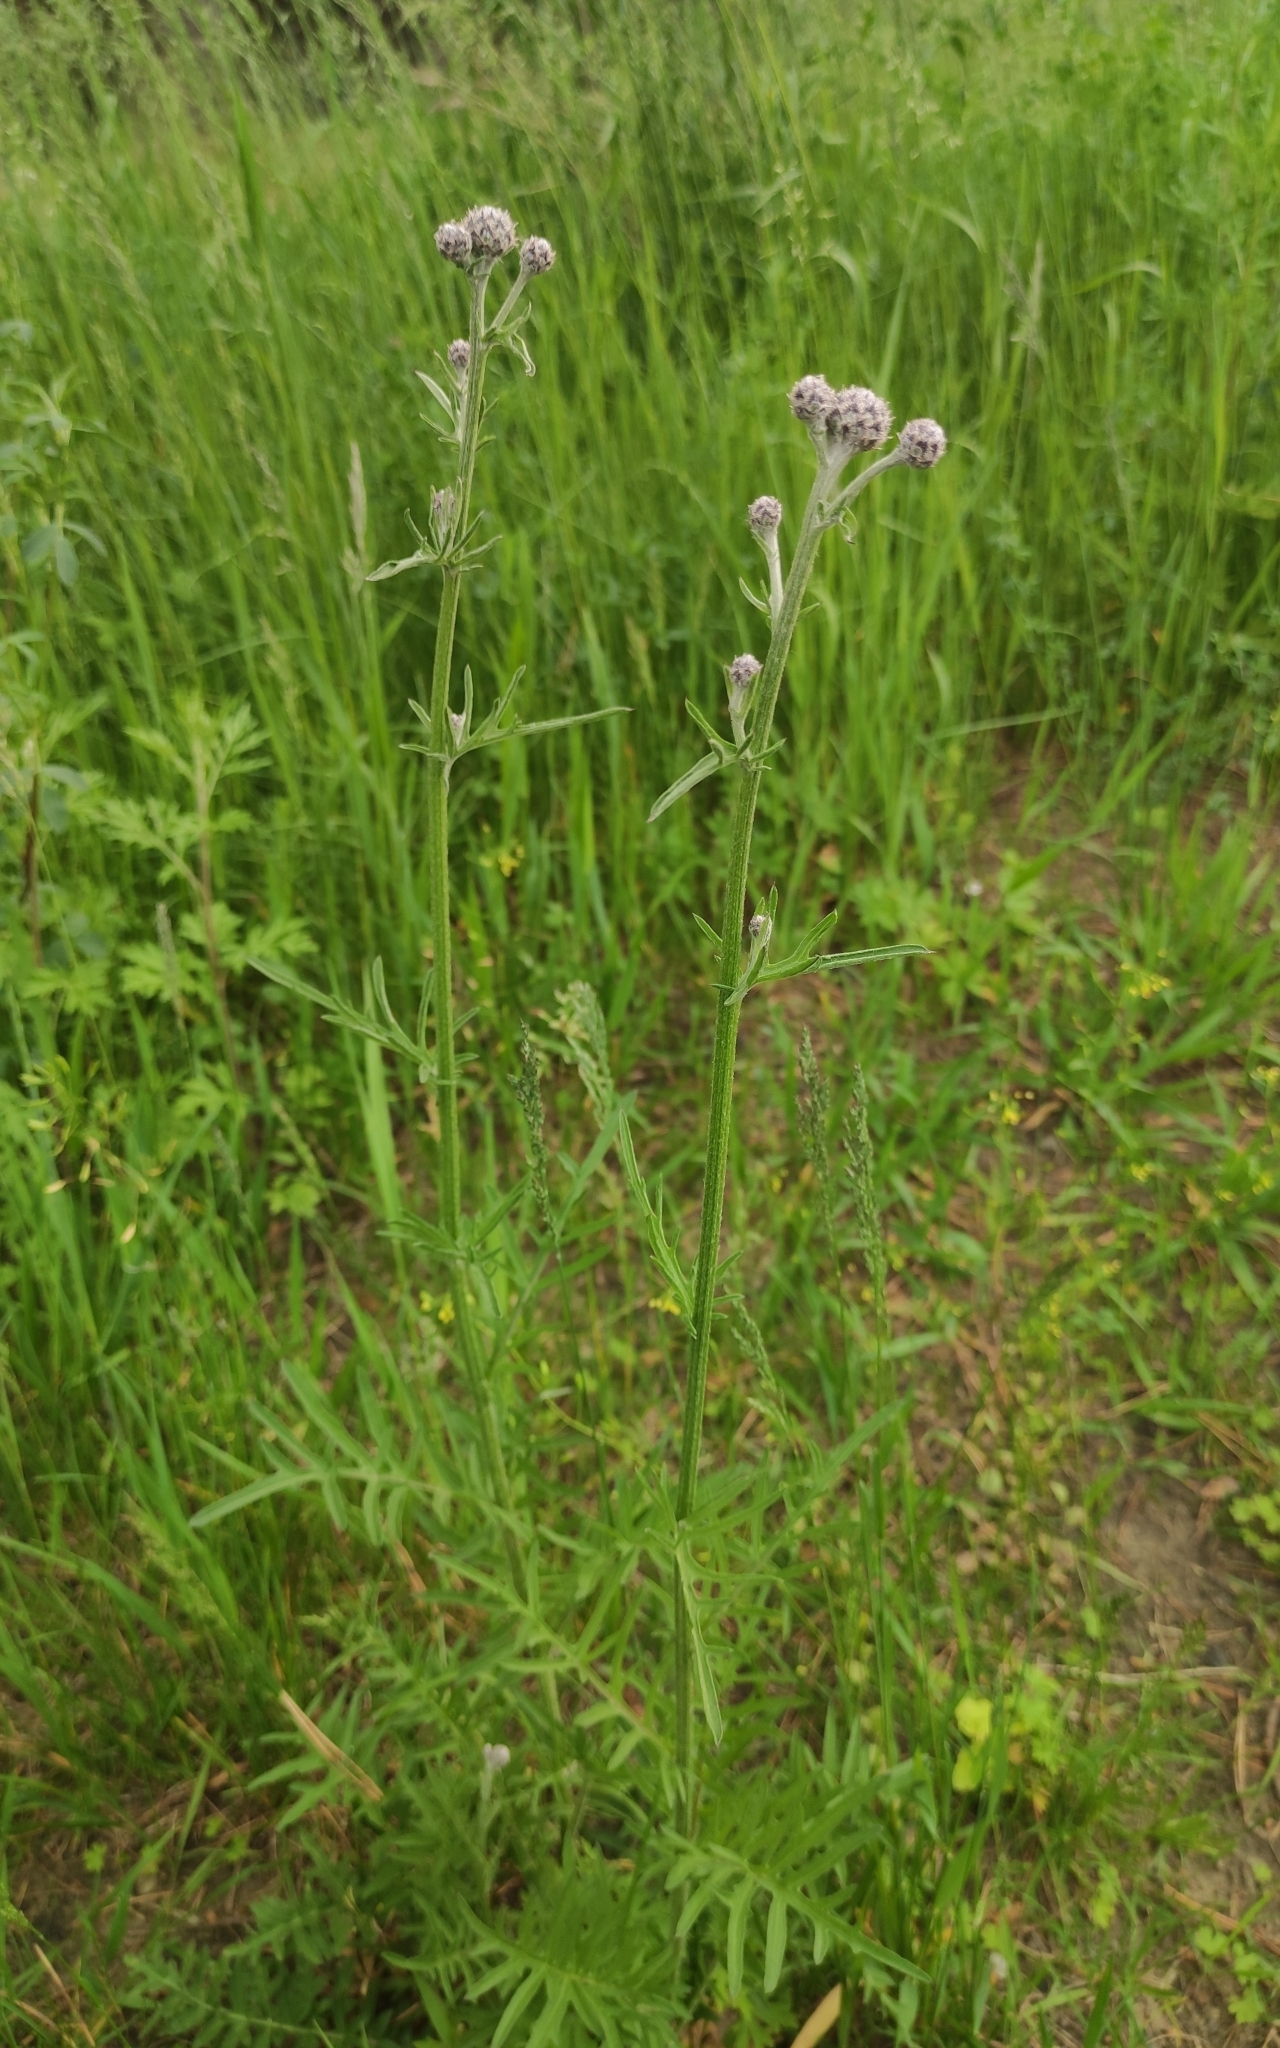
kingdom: Plantae
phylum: Tracheophyta
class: Magnoliopsida
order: Asterales
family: Asteraceae
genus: Centaurea
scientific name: Centaurea scabiosa
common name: Greater knapweed
